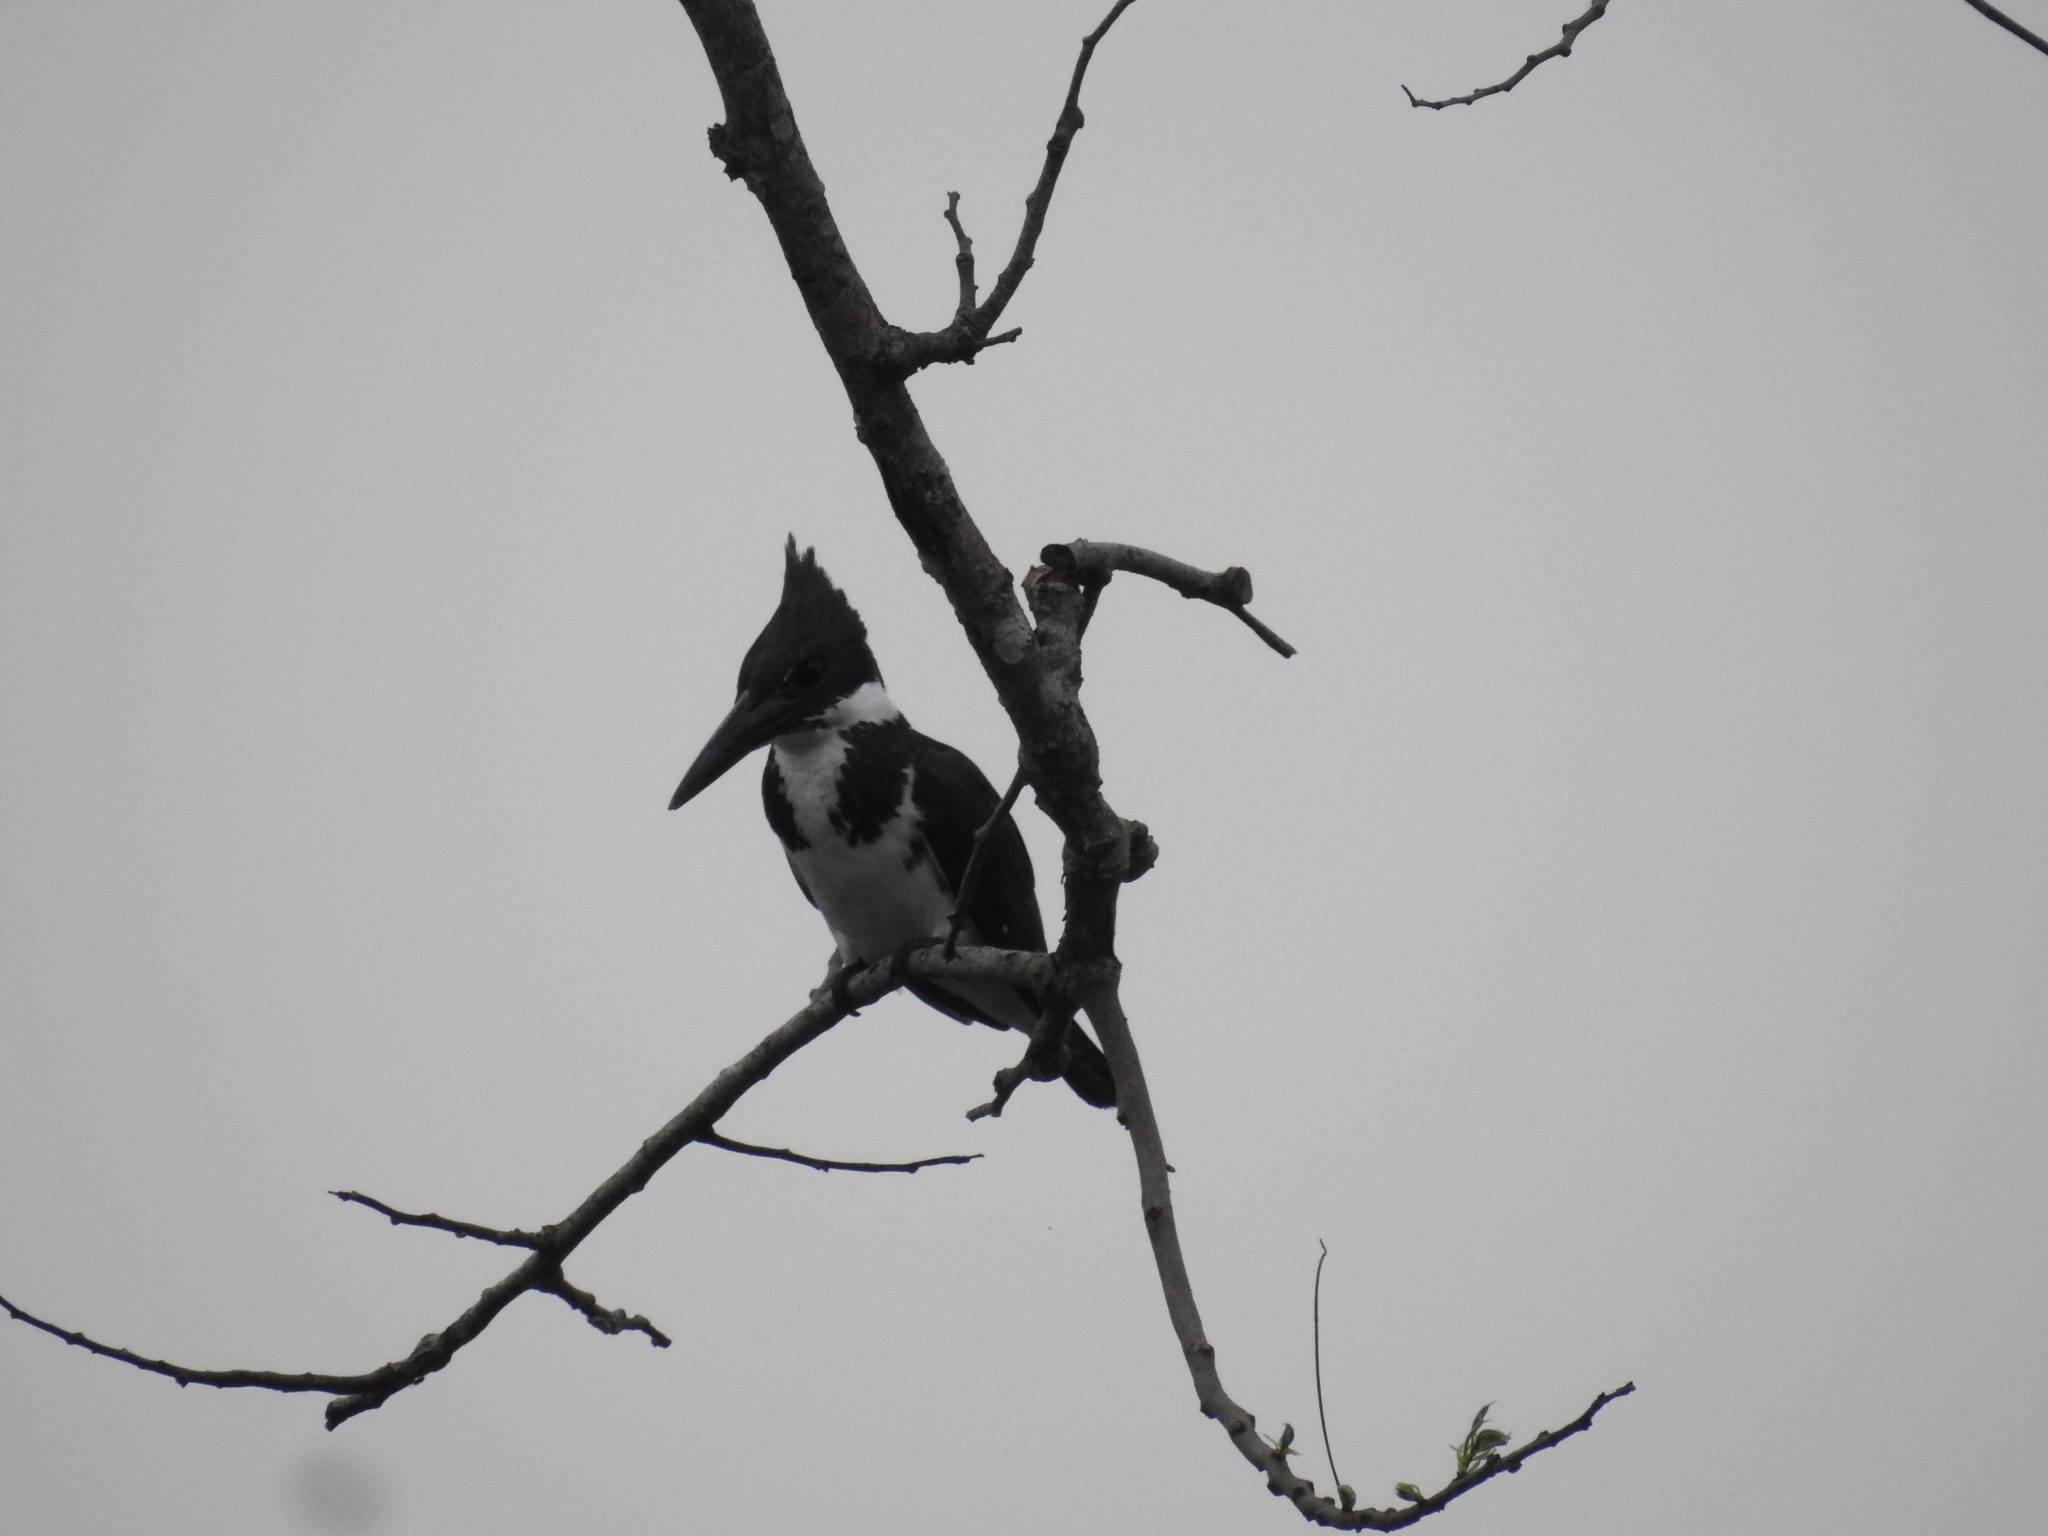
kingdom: Animalia
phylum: Chordata
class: Aves
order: Coraciiformes
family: Alcedinidae
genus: Chloroceryle
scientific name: Chloroceryle amazona
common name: Amazon kingfisher
